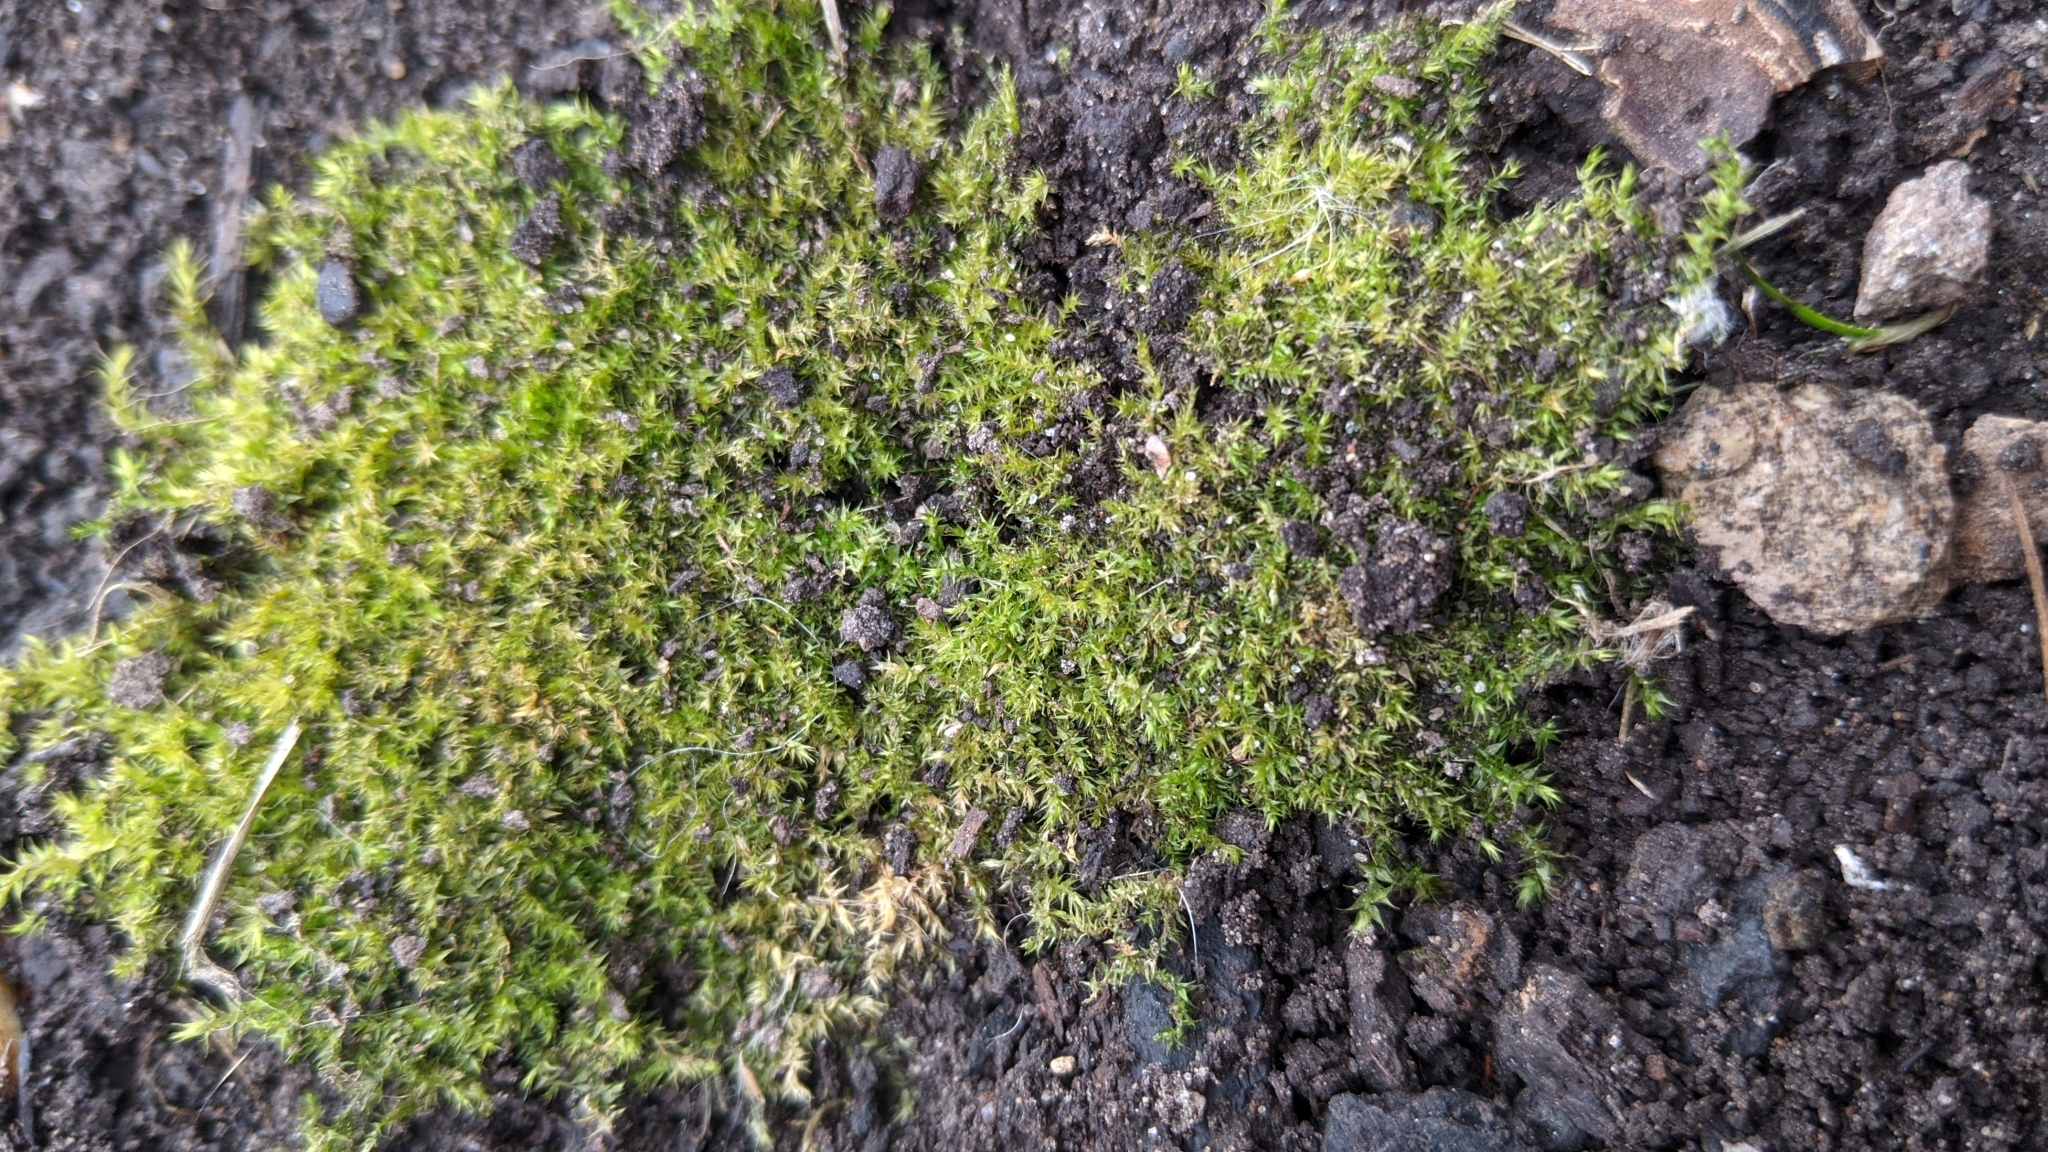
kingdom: Plantae
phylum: Bryophyta
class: Bryopsida
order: Hypnales
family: Amblystegiaceae
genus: Leptodictyum
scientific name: Leptodictyum riparium
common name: Riparian feather moss
